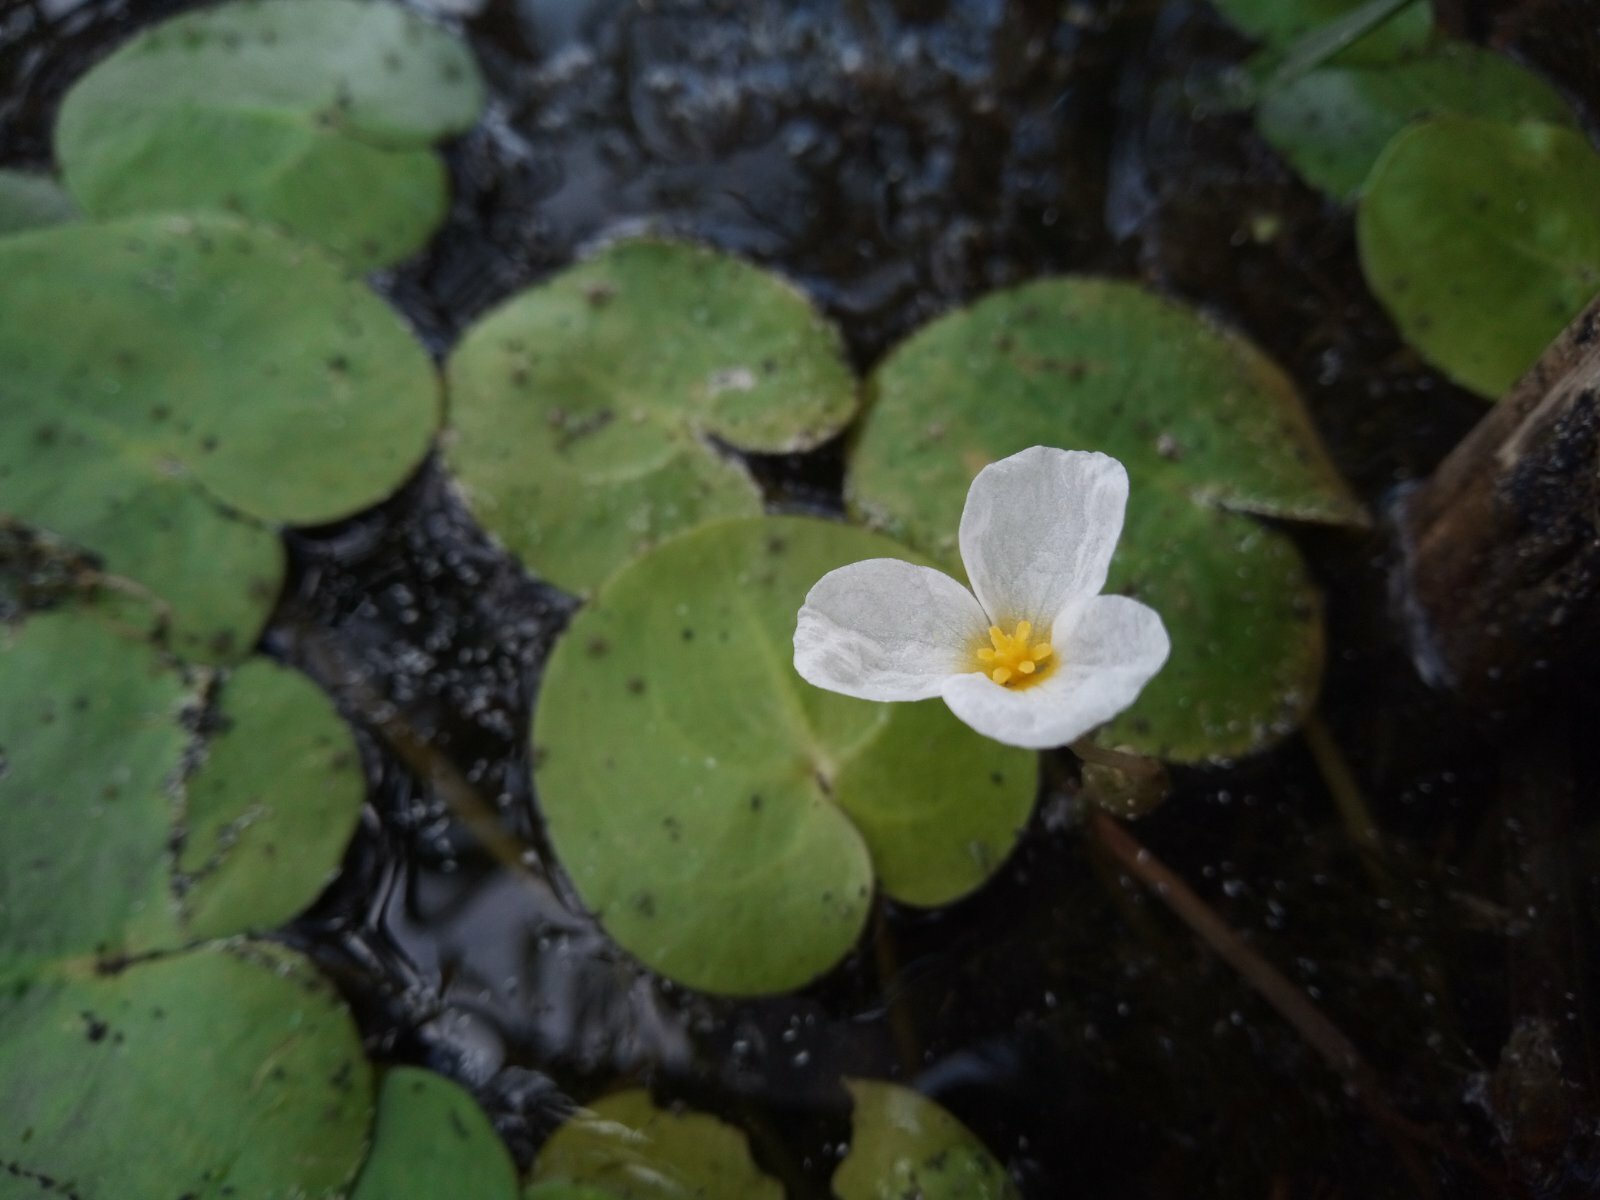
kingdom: Plantae
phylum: Tracheophyta
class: Liliopsida
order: Alismatales
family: Hydrocharitaceae
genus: Hydrocharis
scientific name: Hydrocharis morsus-ranae
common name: Frogbit
